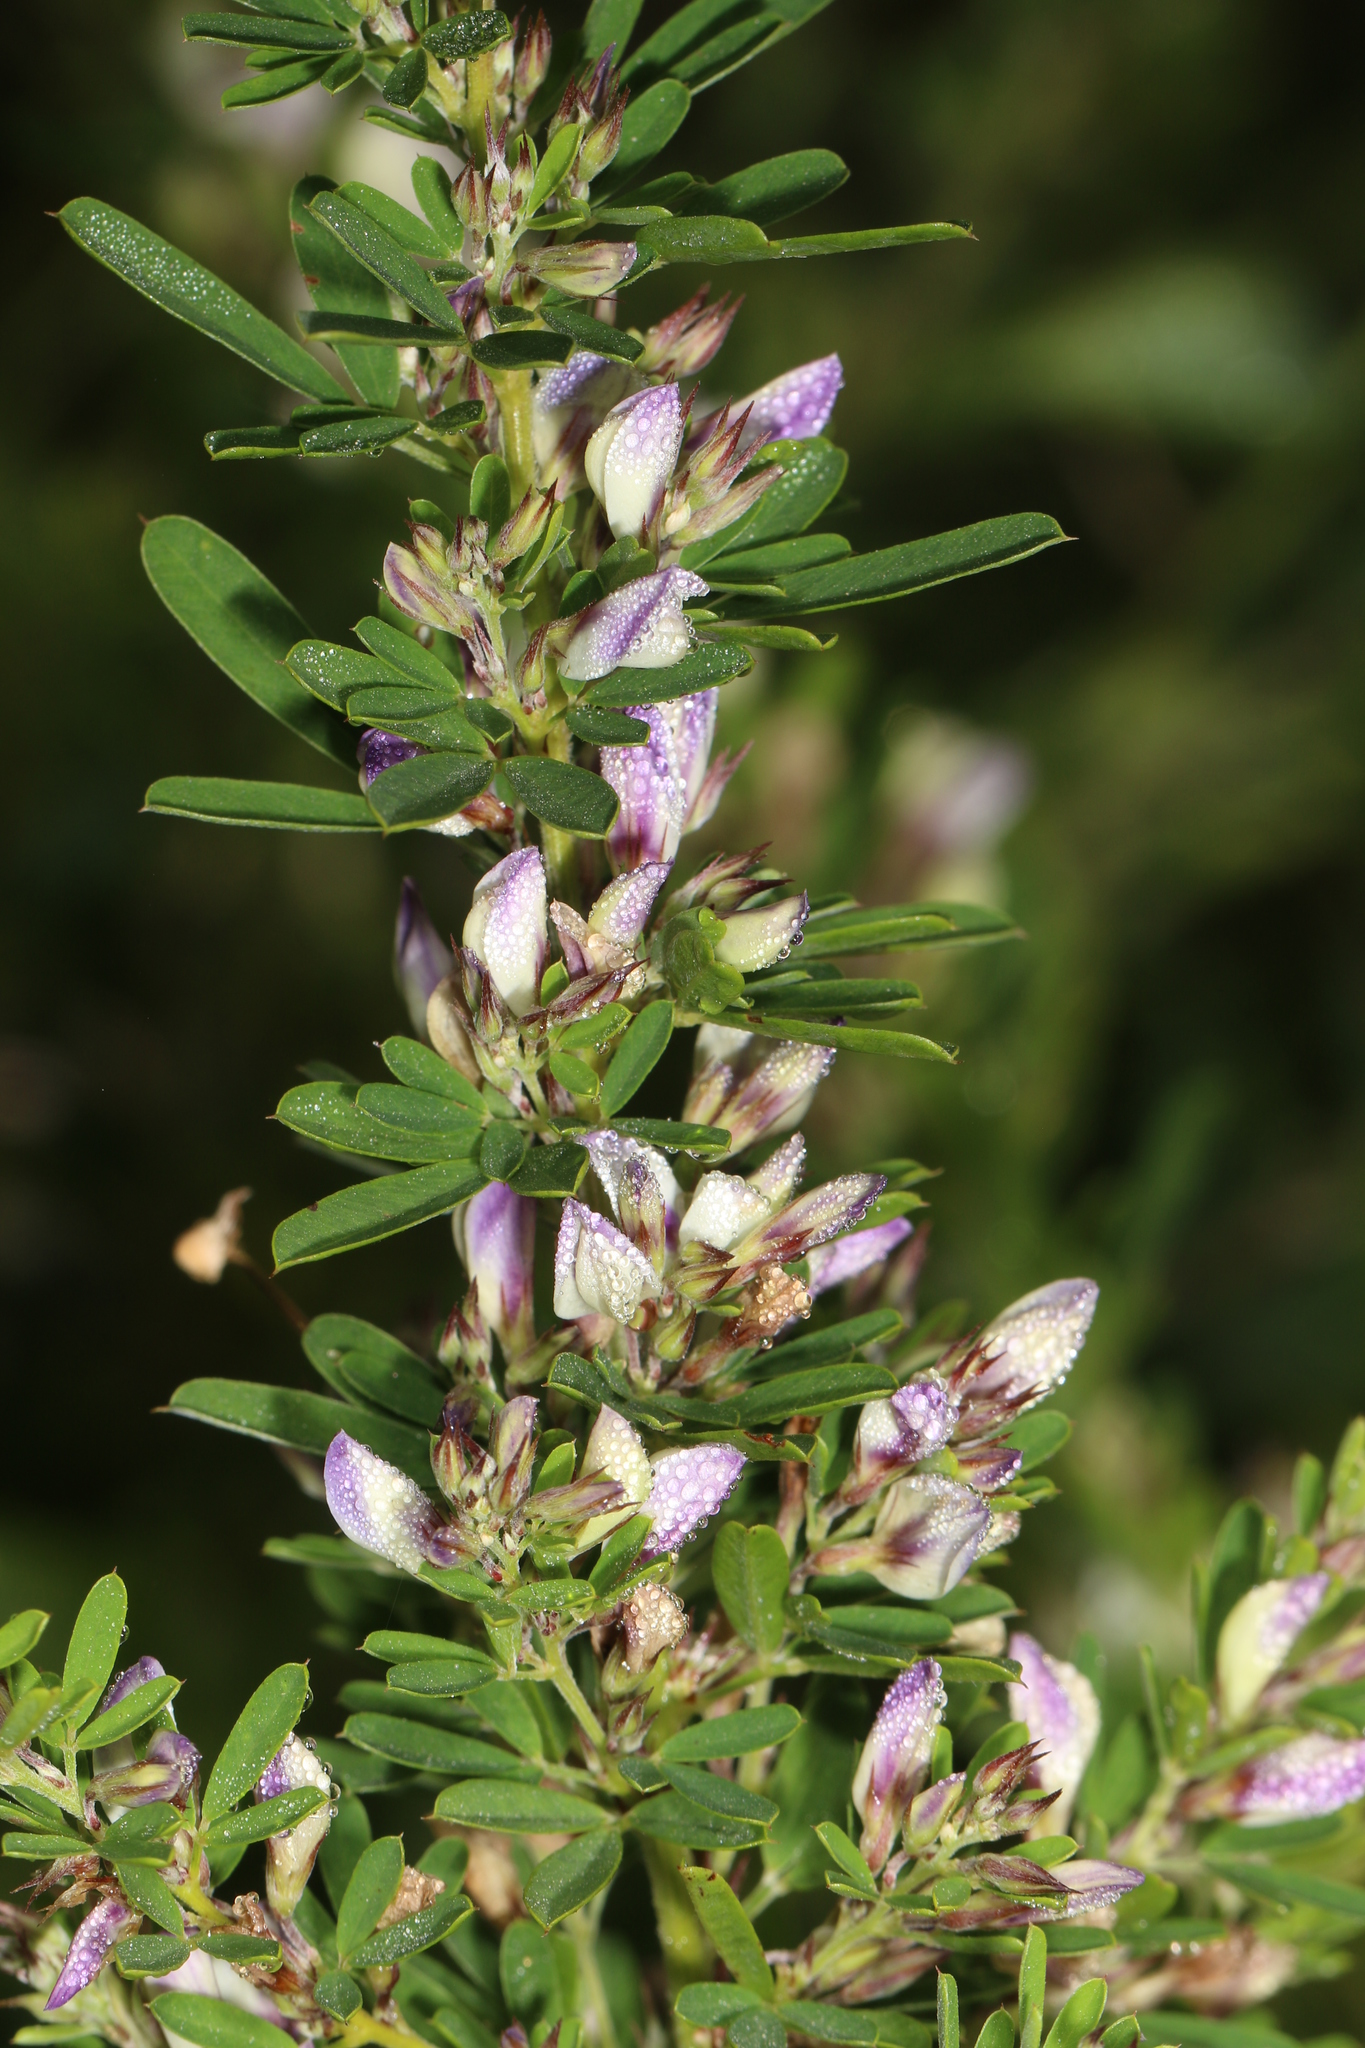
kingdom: Plantae
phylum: Tracheophyta
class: Magnoliopsida
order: Fabales
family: Fabaceae
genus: Lespedeza
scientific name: Lespedeza cuneata
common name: Chinese bush-clover
